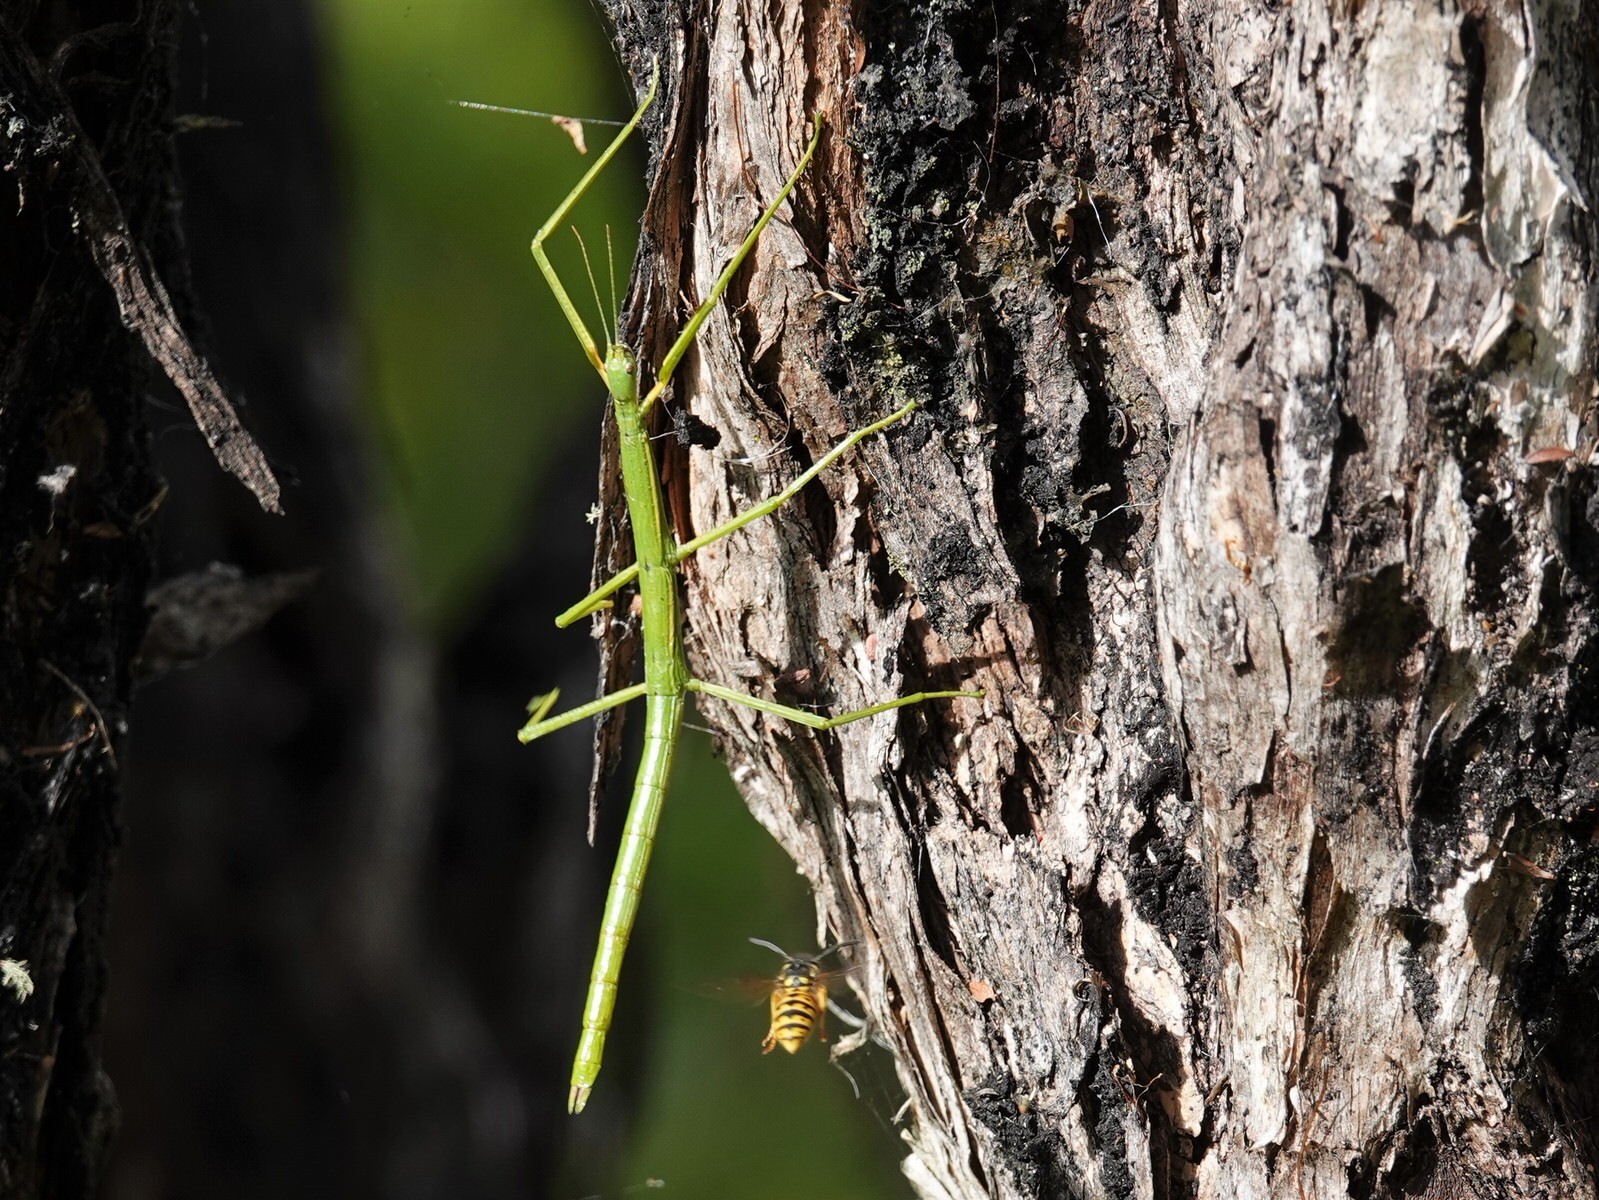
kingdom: Animalia
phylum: Arthropoda
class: Insecta
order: Hymenoptera
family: Vespidae
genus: Vespula
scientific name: Vespula germanica
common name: German wasp
